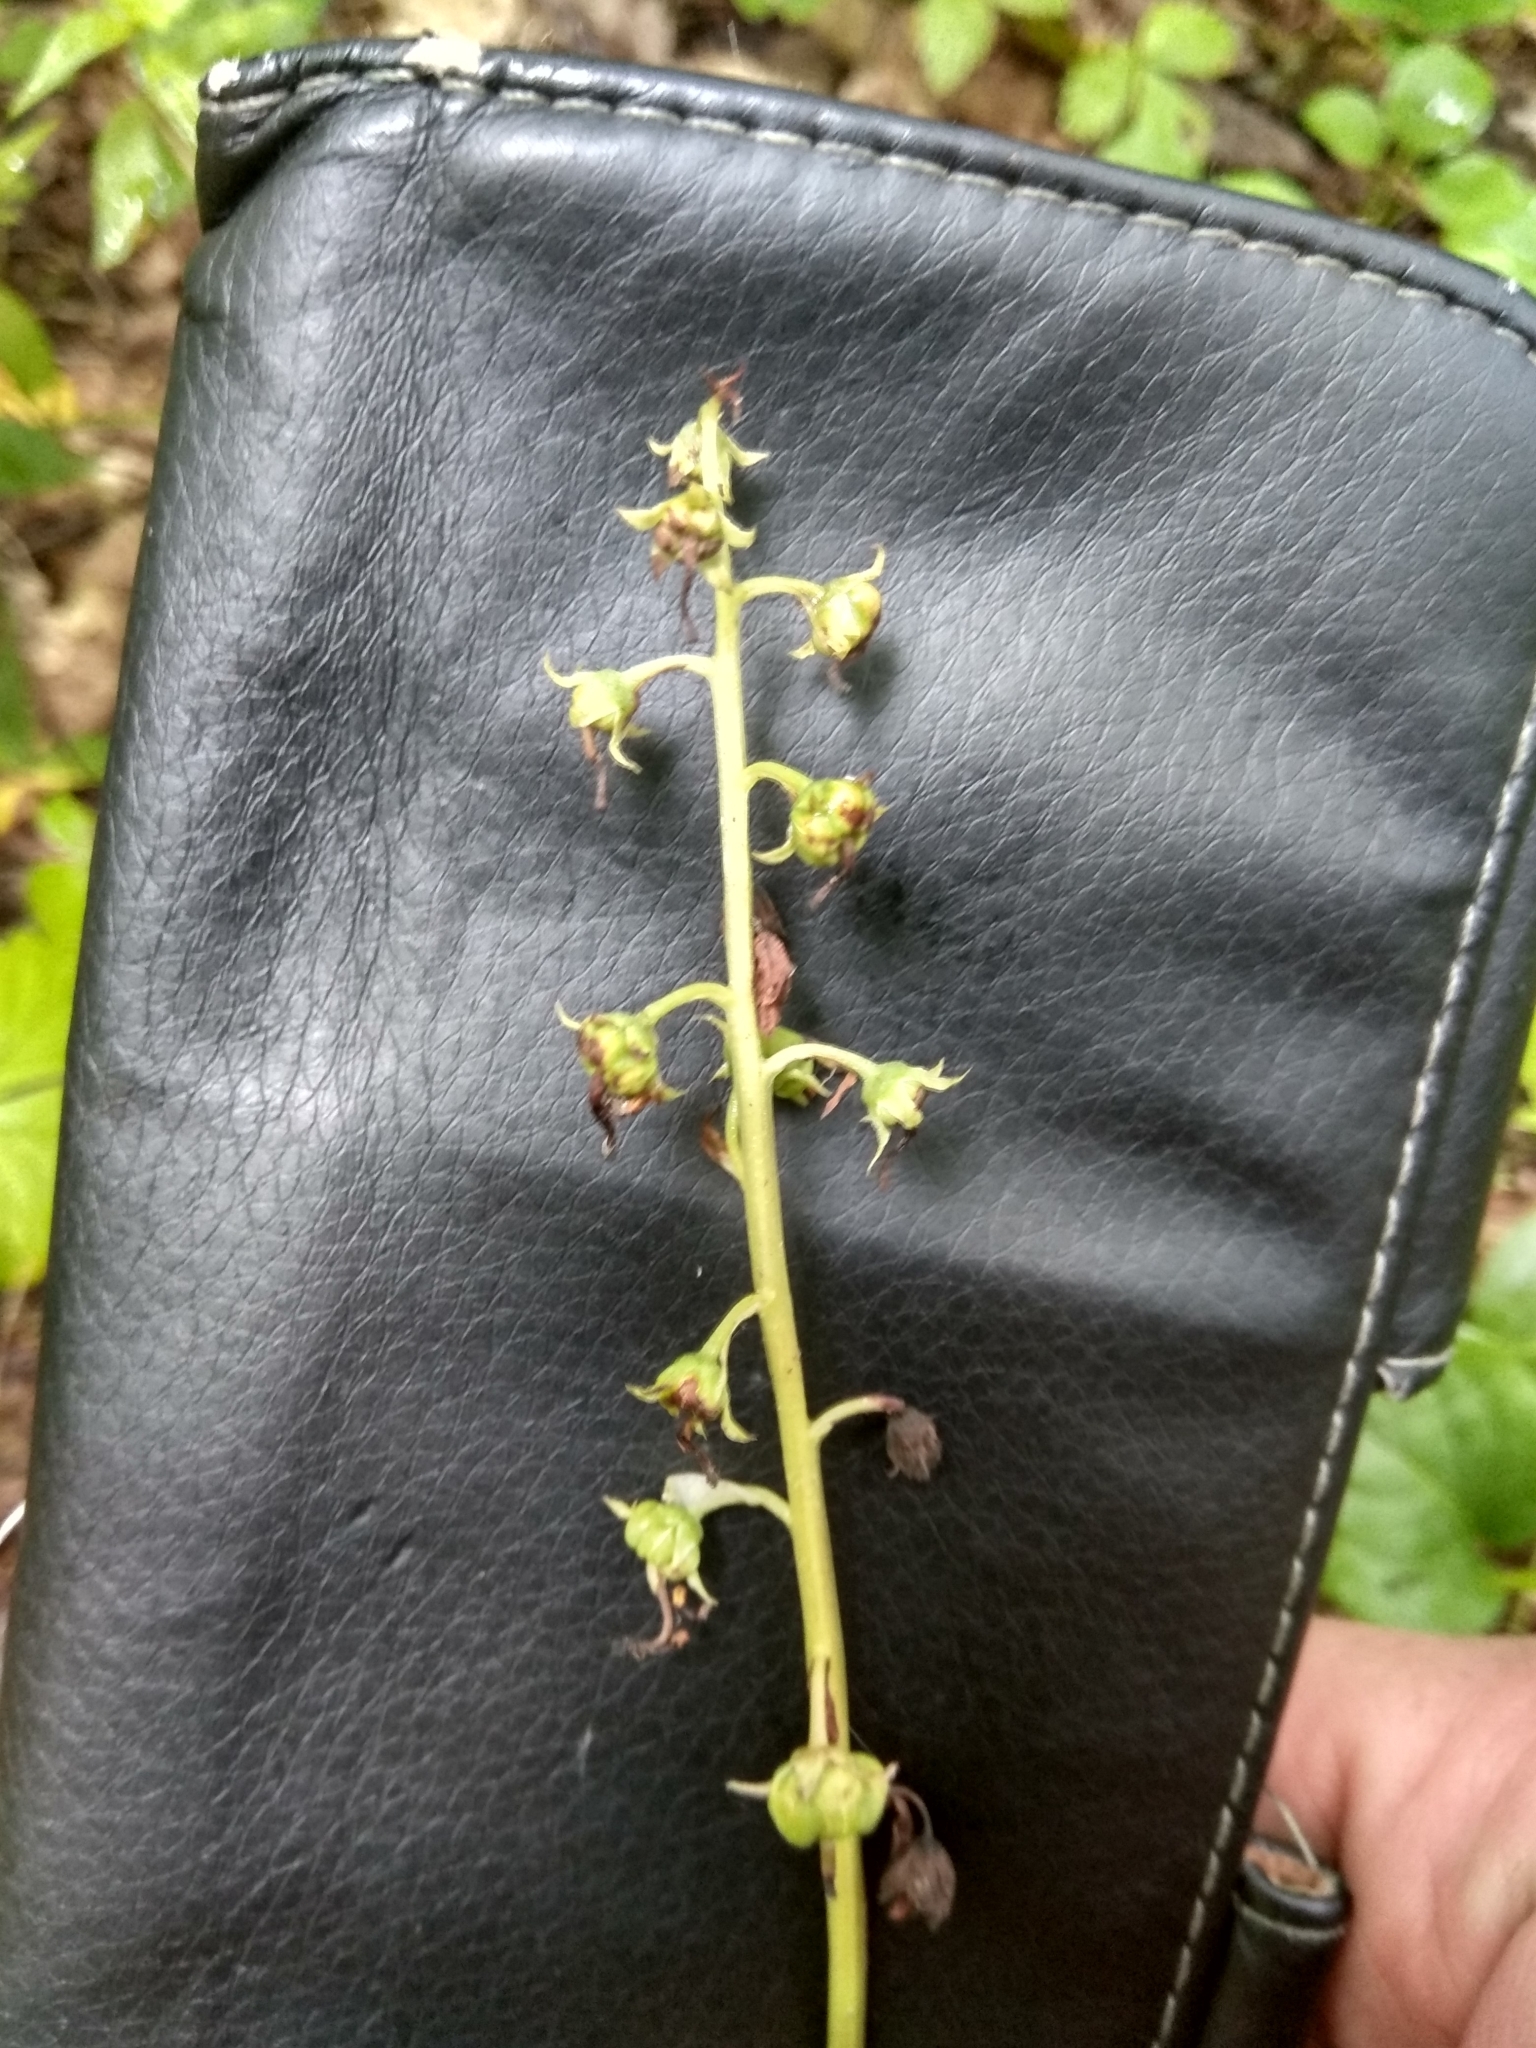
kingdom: Plantae
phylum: Tracheophyta
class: Magnoliopsida
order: Ericales
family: Ericaceae
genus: Pyrola
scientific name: Pyrola rotundifolia
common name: Round-leaved wintergreen
